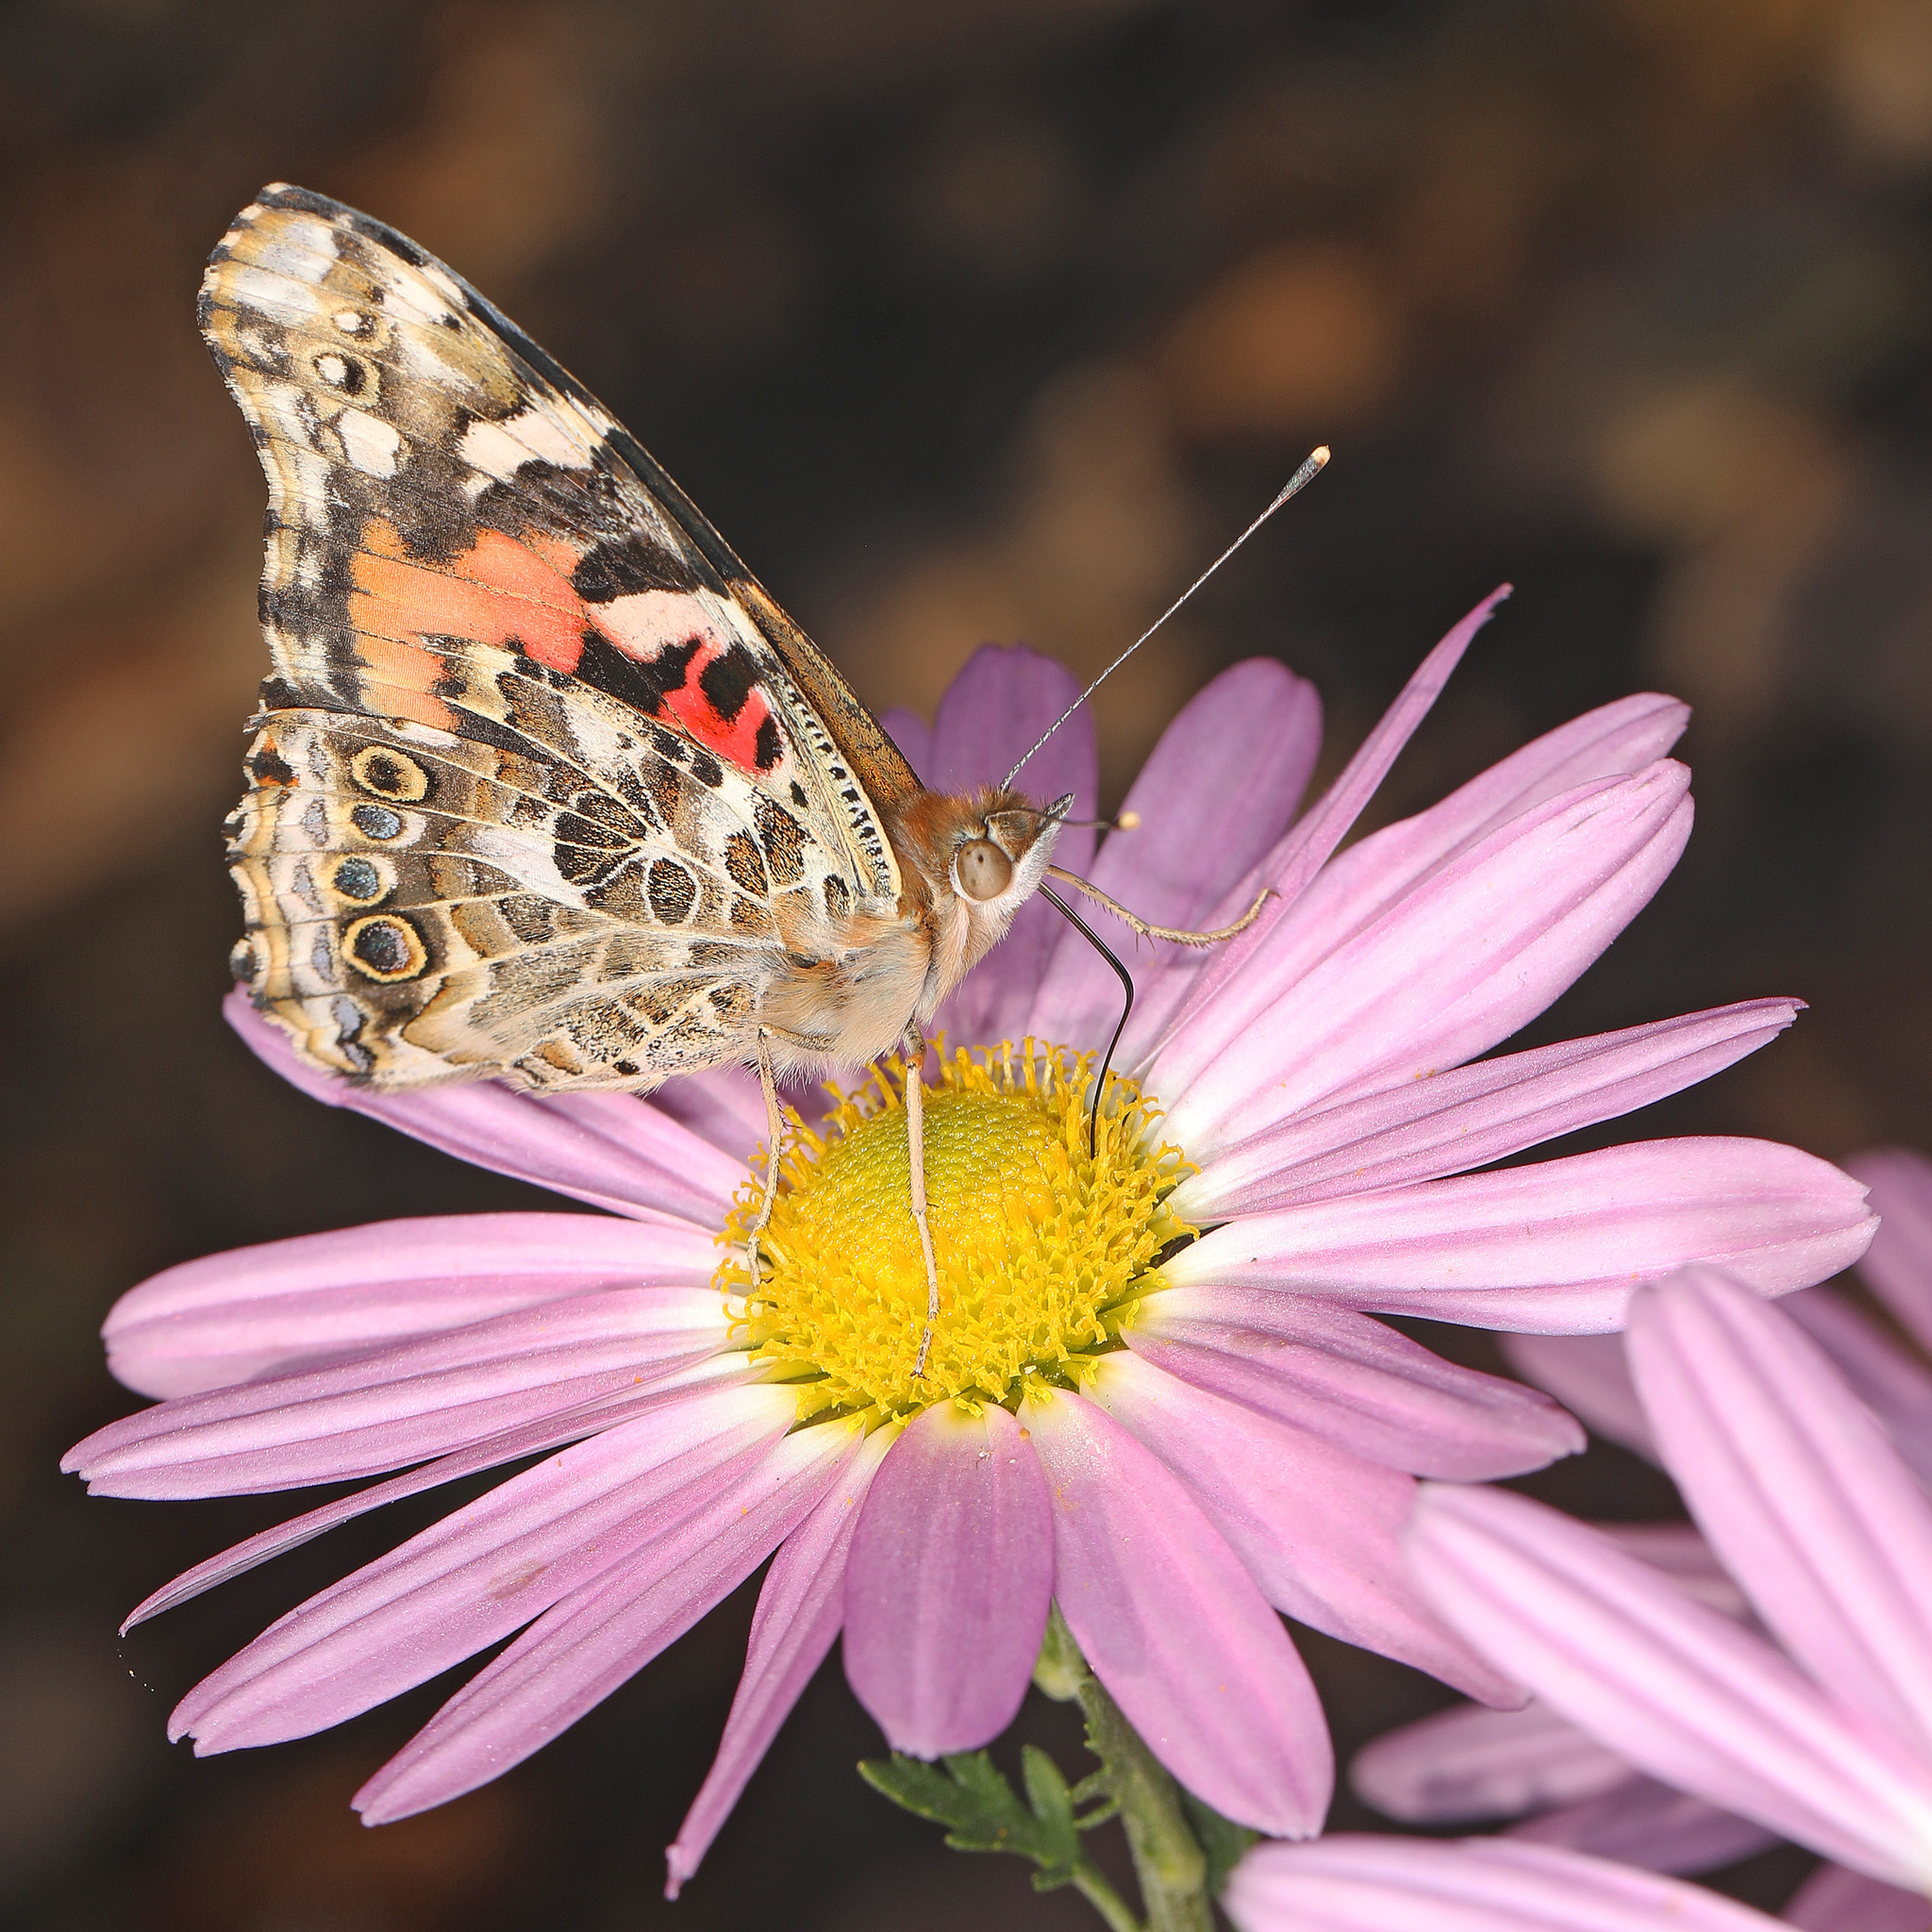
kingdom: Animalia
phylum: Arthropoda
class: Insecta
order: Lepidoptera
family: Nymphalidae
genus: Vanessa
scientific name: Vanessa cardui
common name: Painted lady
